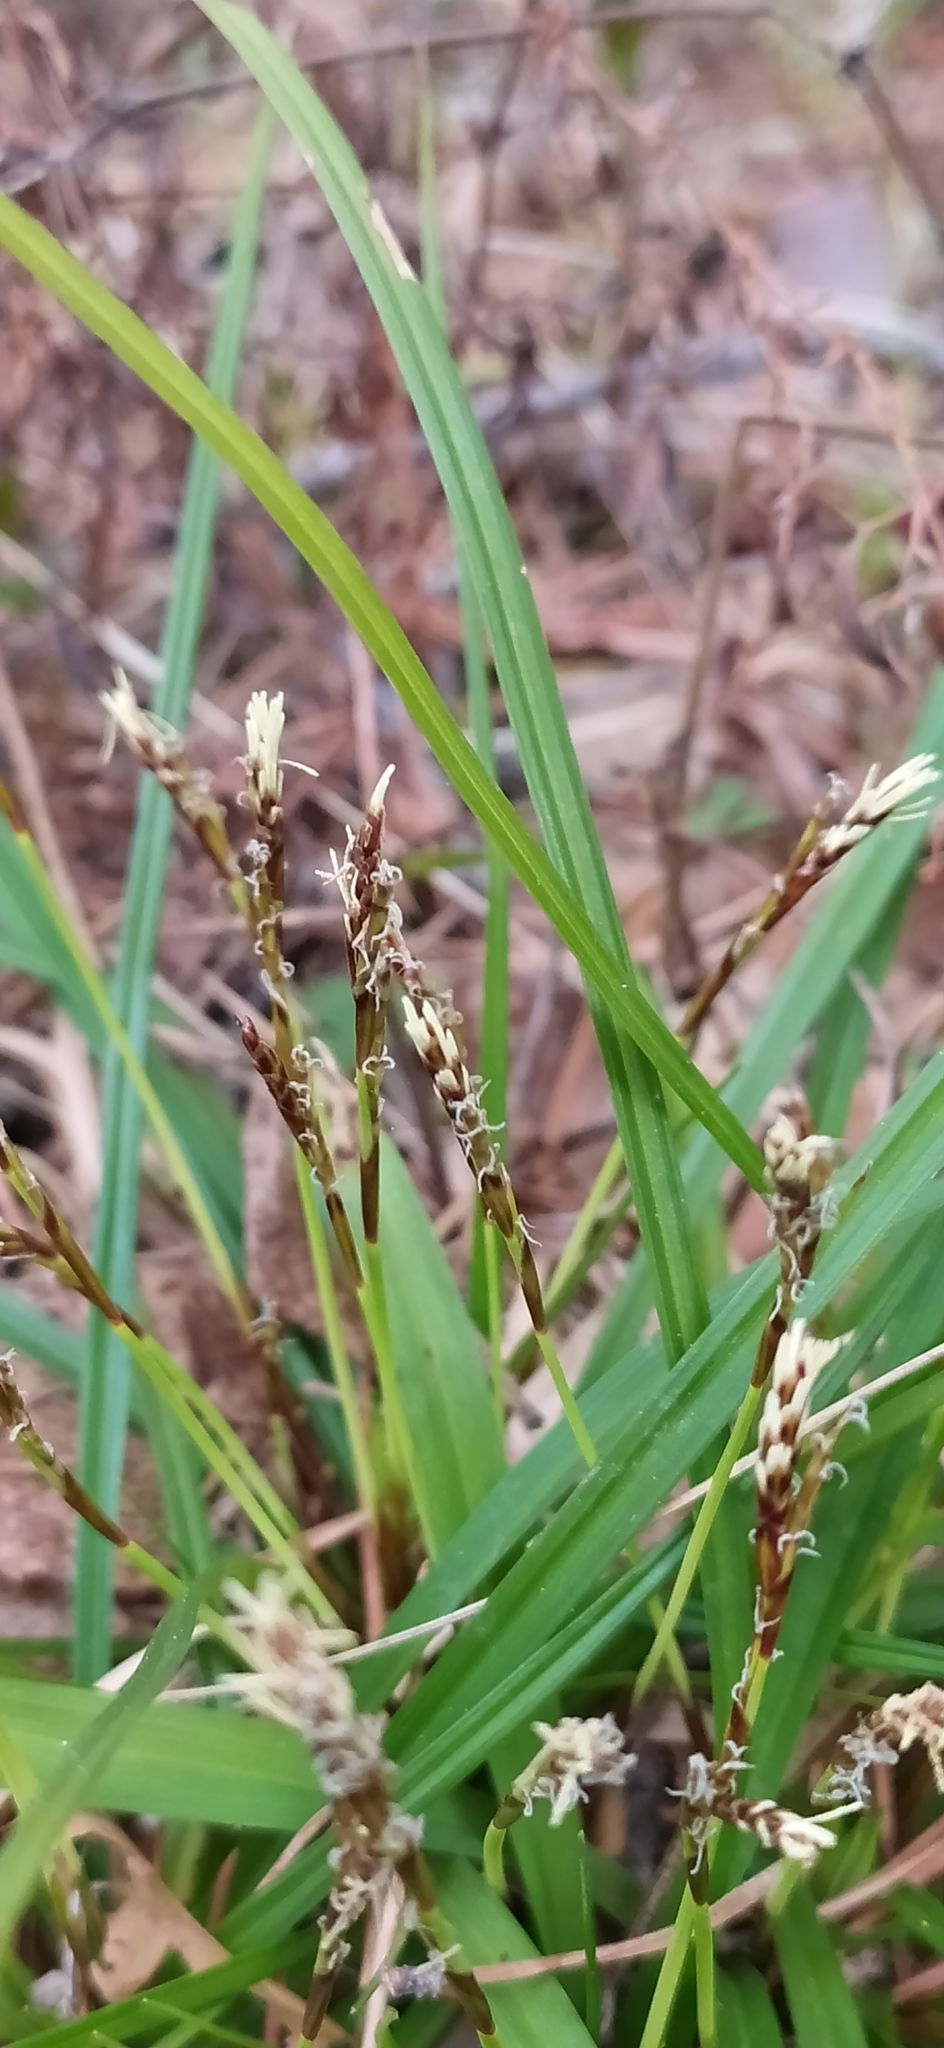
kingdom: Plantae
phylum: Tracheophyta
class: Liliopsida
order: Poales
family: Cyperaceae
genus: Carex
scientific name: Carex digitata
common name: Fingered sedge
